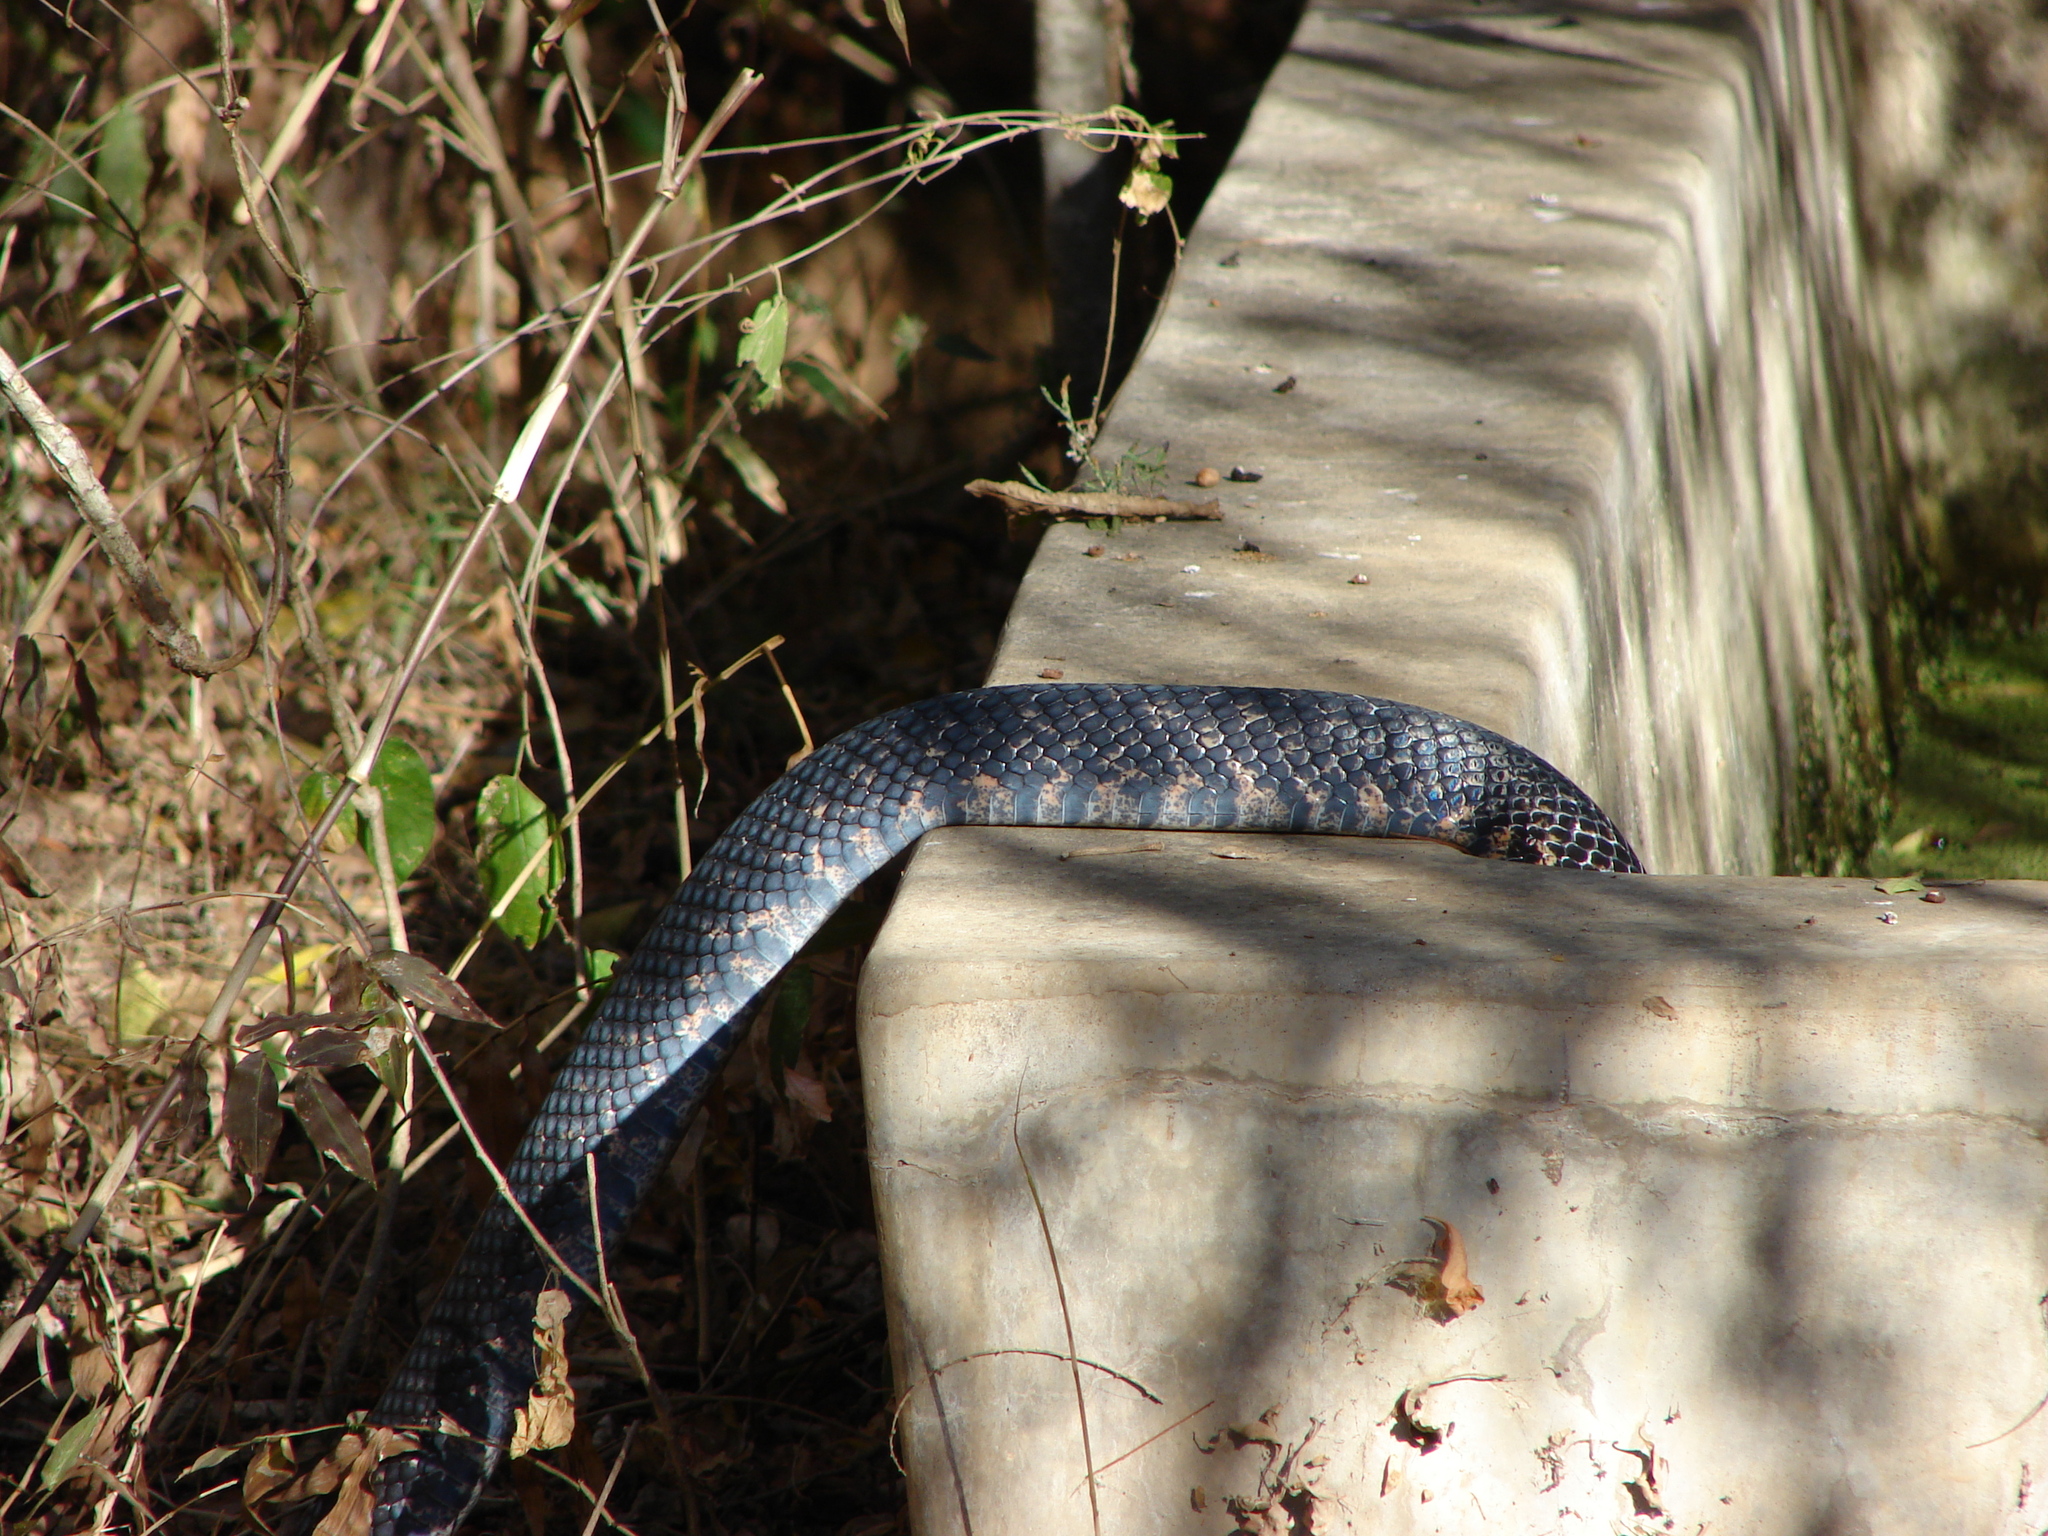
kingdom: Animalia
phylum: Chordata
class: Squamata
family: Colubridae
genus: Drymarchon
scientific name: Drymarchon melanurus
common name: Central american indigo snake
